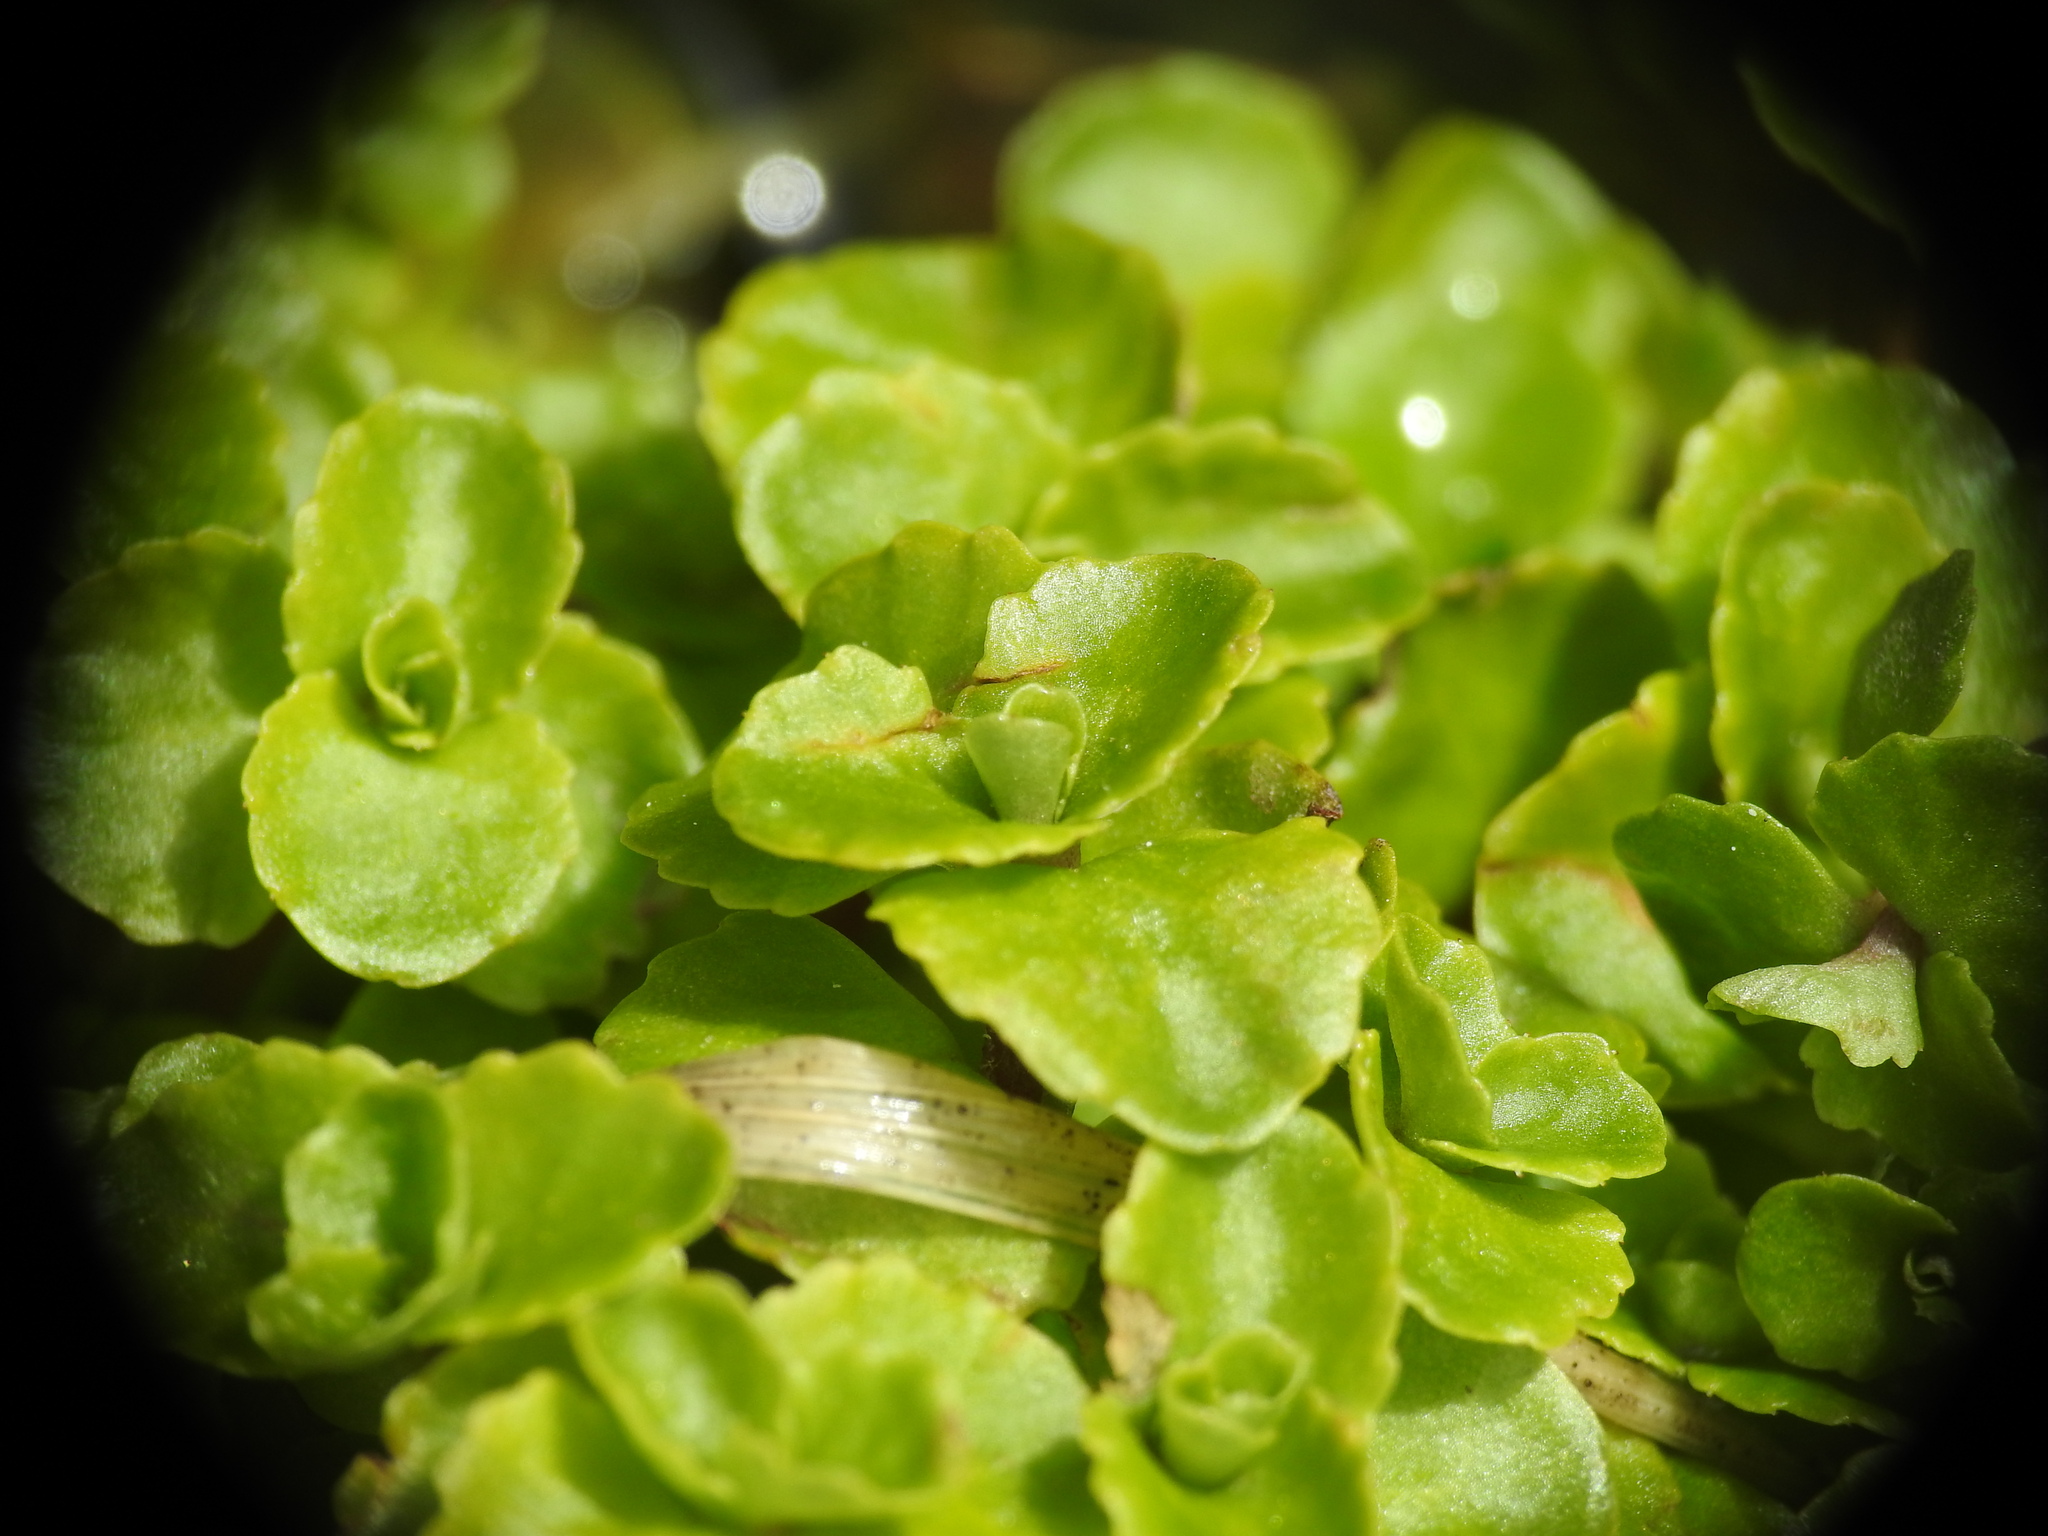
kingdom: Plantae
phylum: Tracheophyta
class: Magnoliopsida
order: Saxifragales
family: Saxifragaceae
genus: Chrysosplenium
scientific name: Chrysosplenium oppositifolium
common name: Opposite-leaved golden-saxifrage
